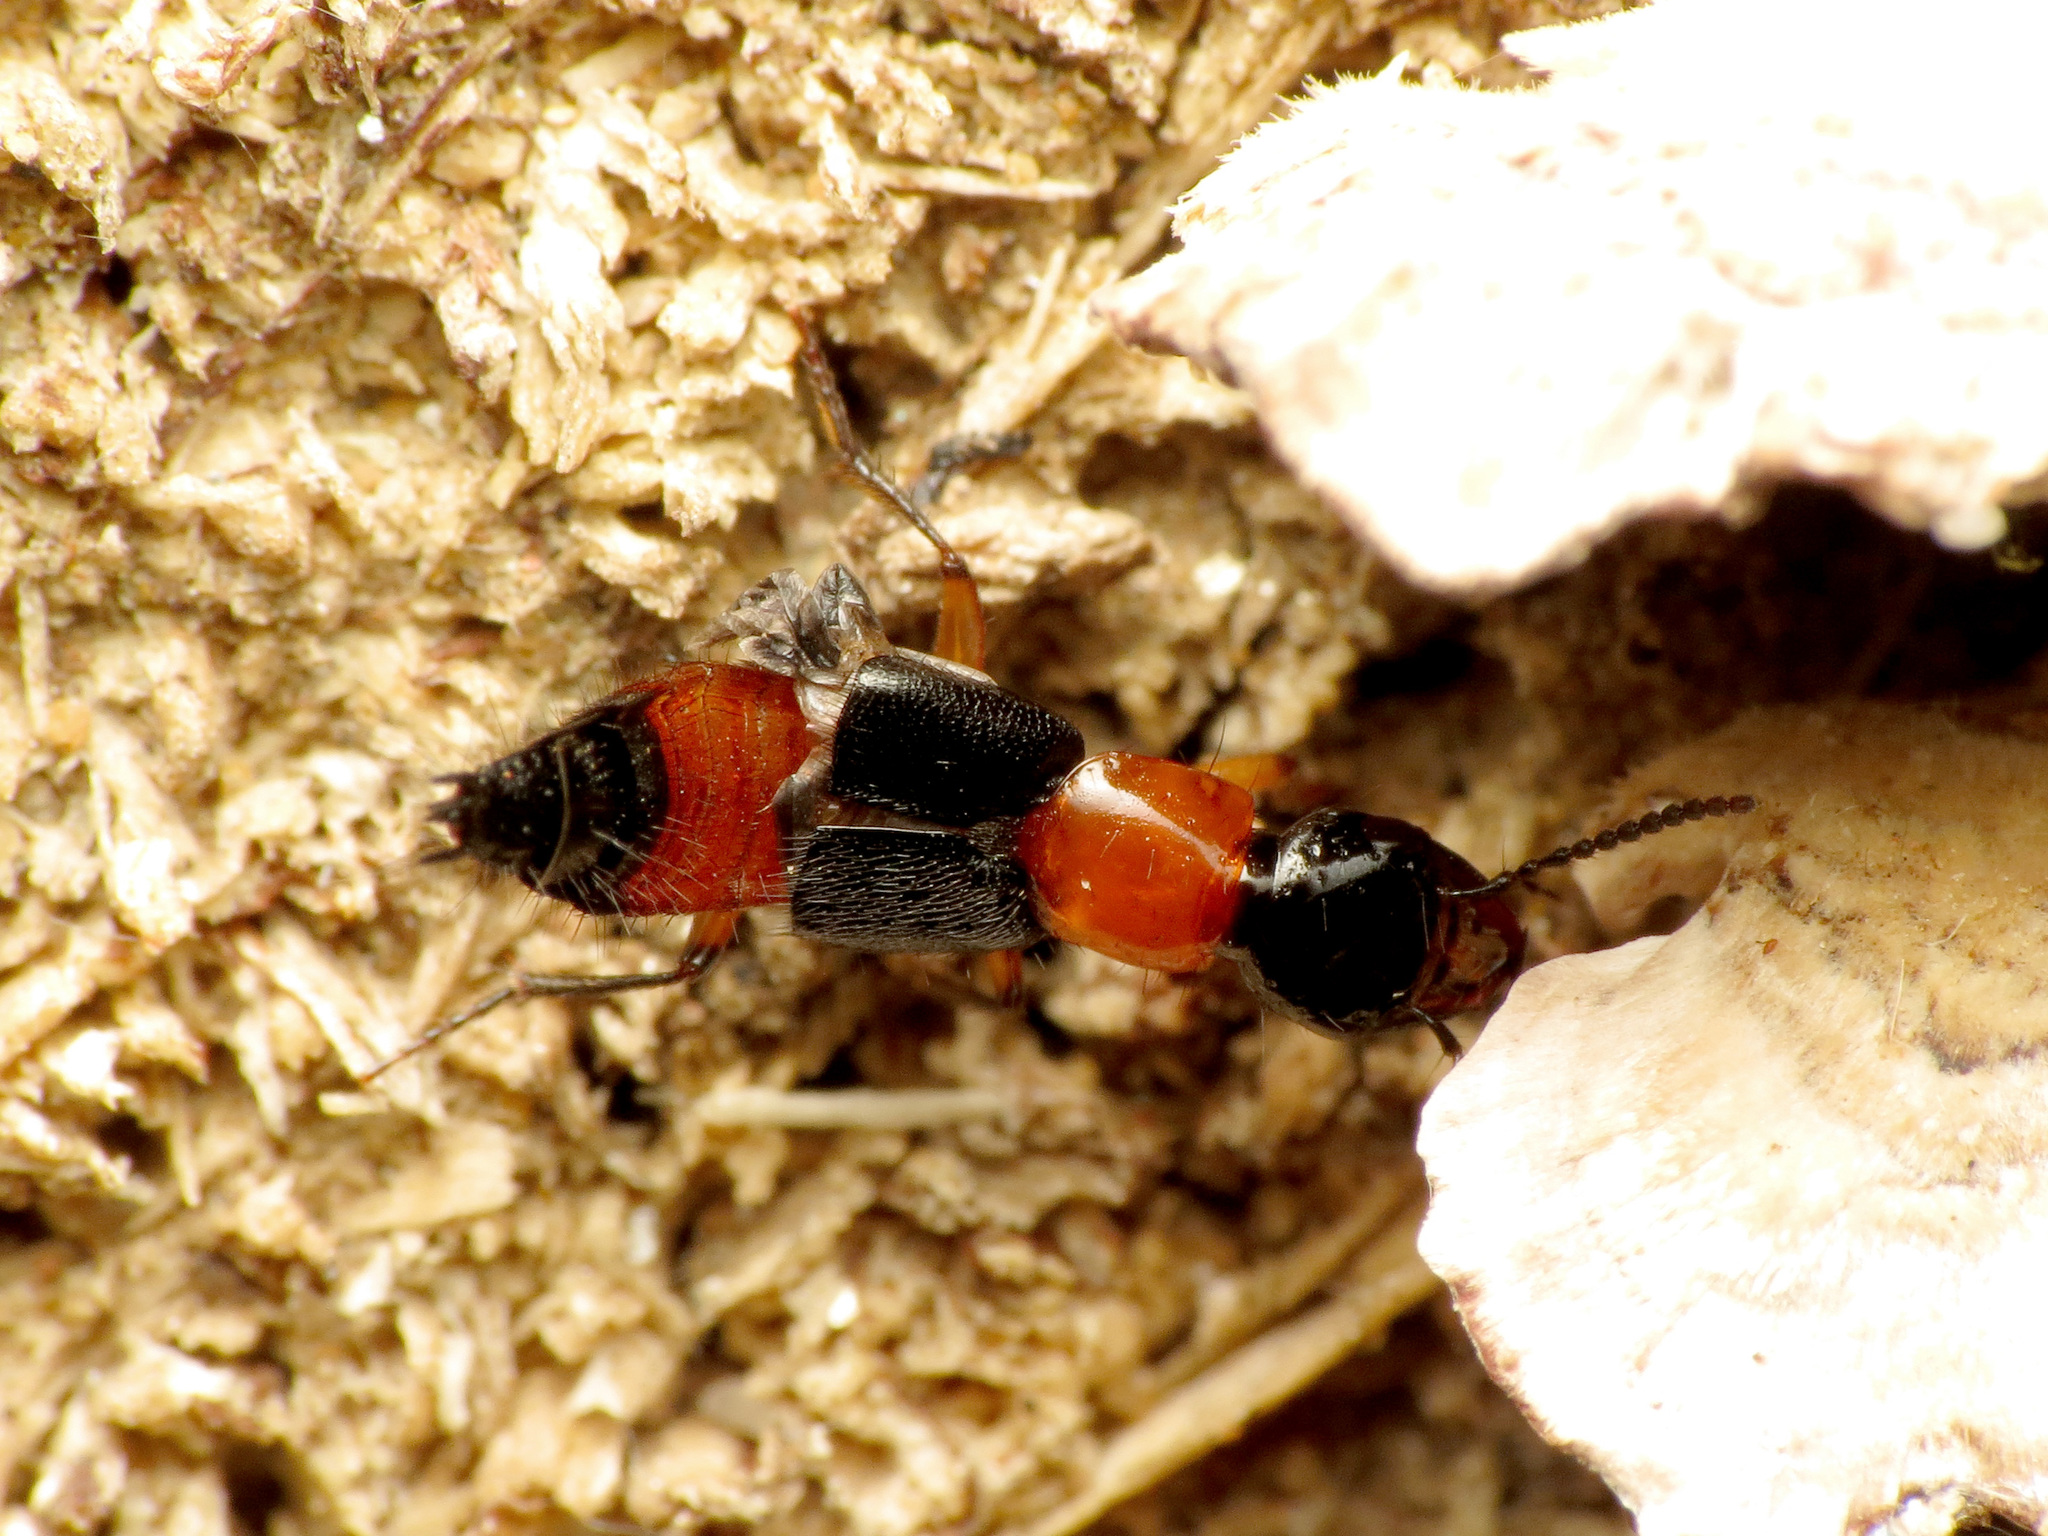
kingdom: Animalia
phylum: Arthropoda
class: Insecta
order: Coleoptera
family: Staphylinidae
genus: Laetulonthus
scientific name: Laetulonthus laetulus
